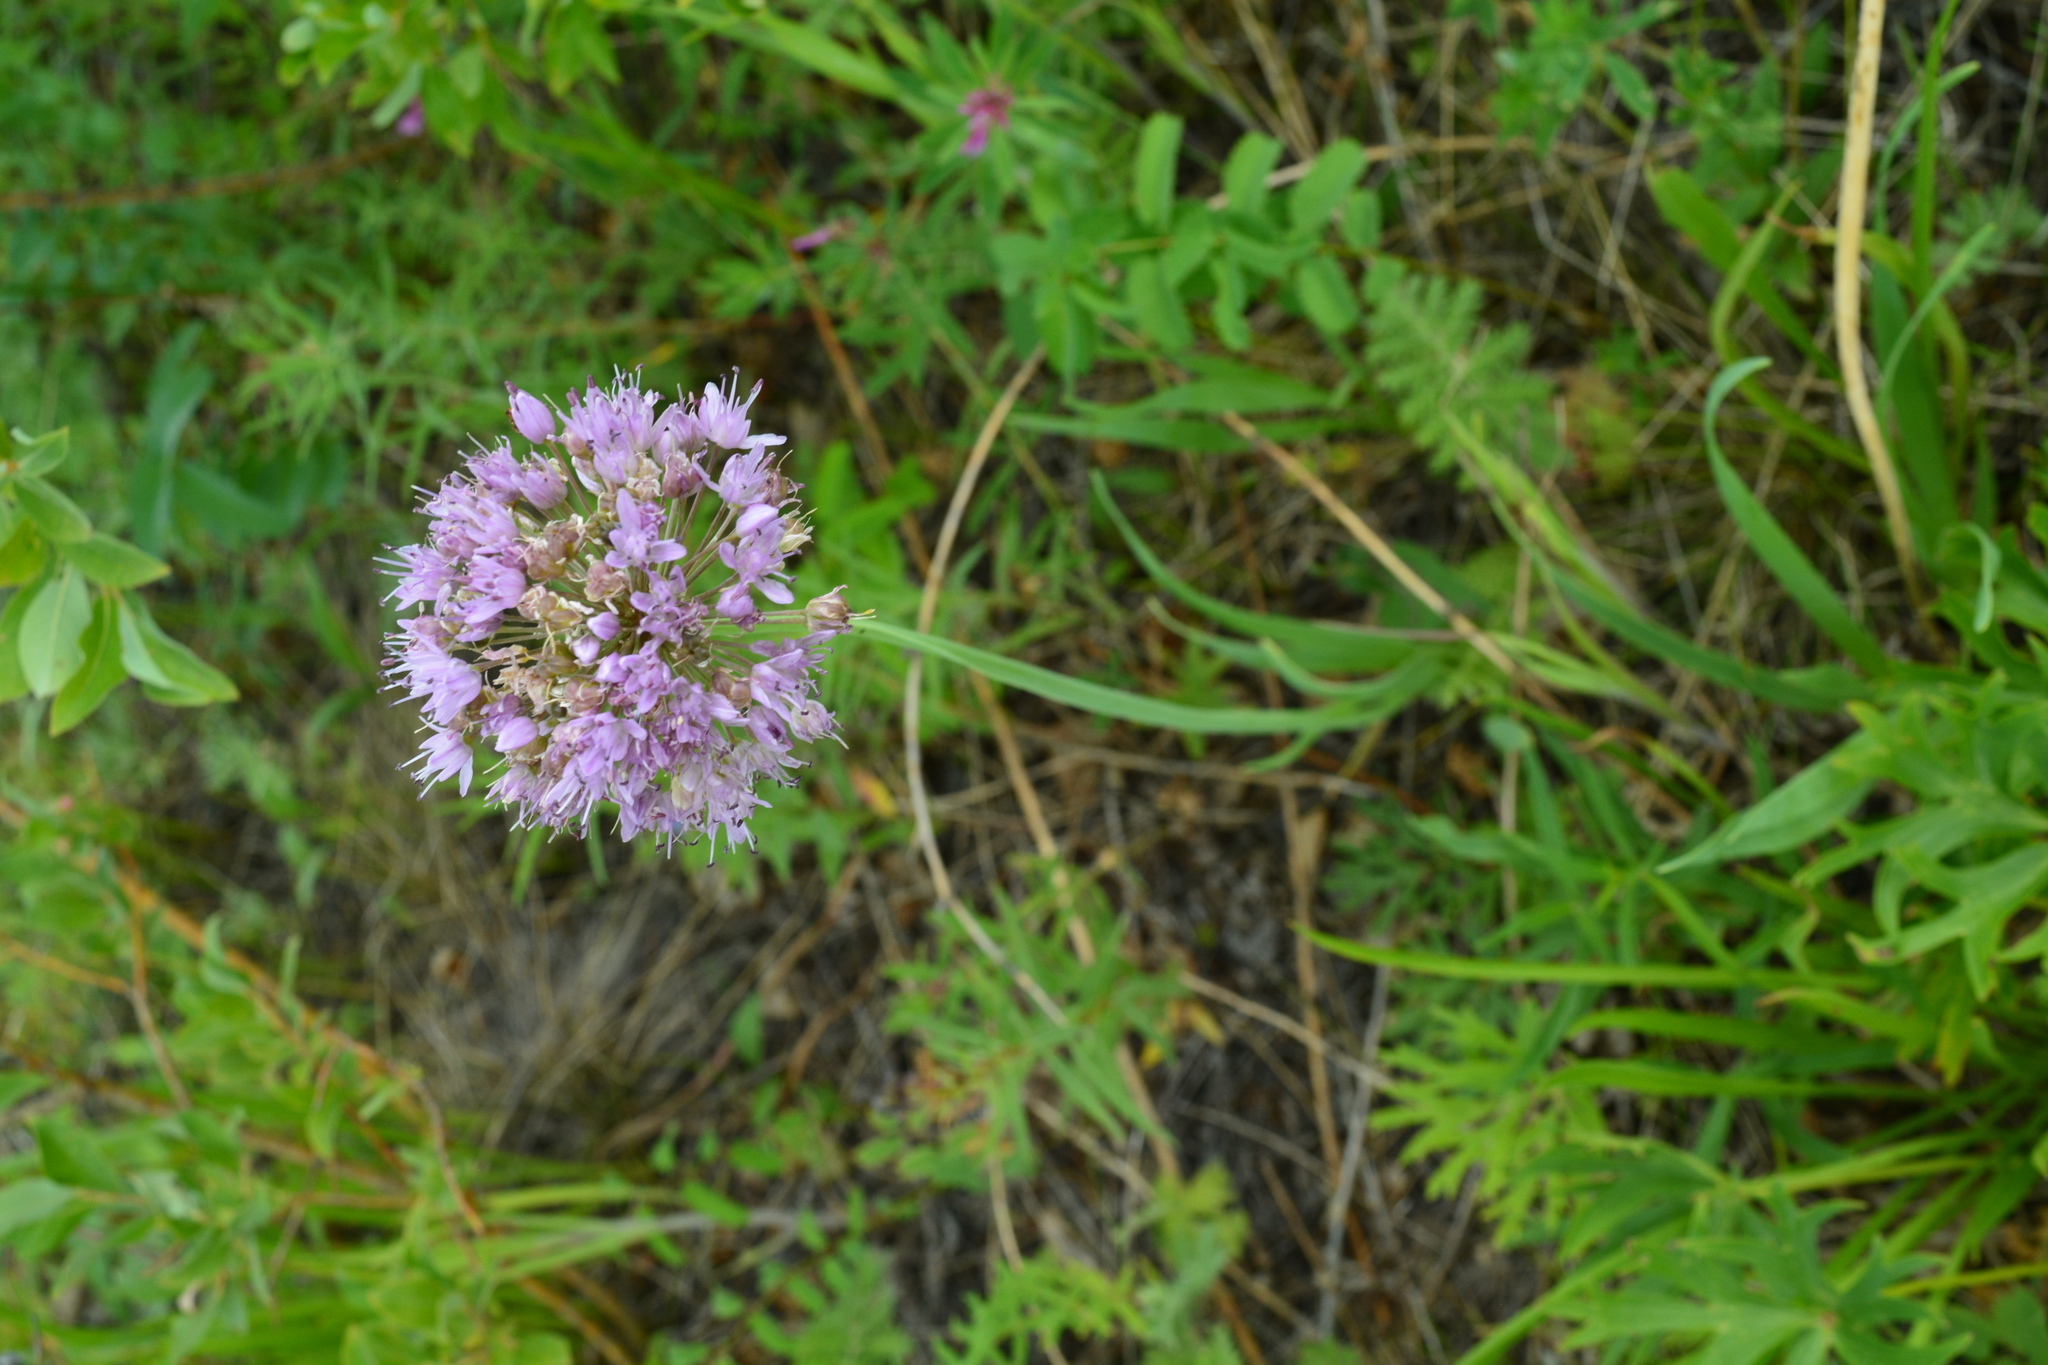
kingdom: Plantae
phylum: Tracheophyta
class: Liliopsida
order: Asparagales
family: Amaryllidaceae
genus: Allium
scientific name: Allium senescens
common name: German garlic
